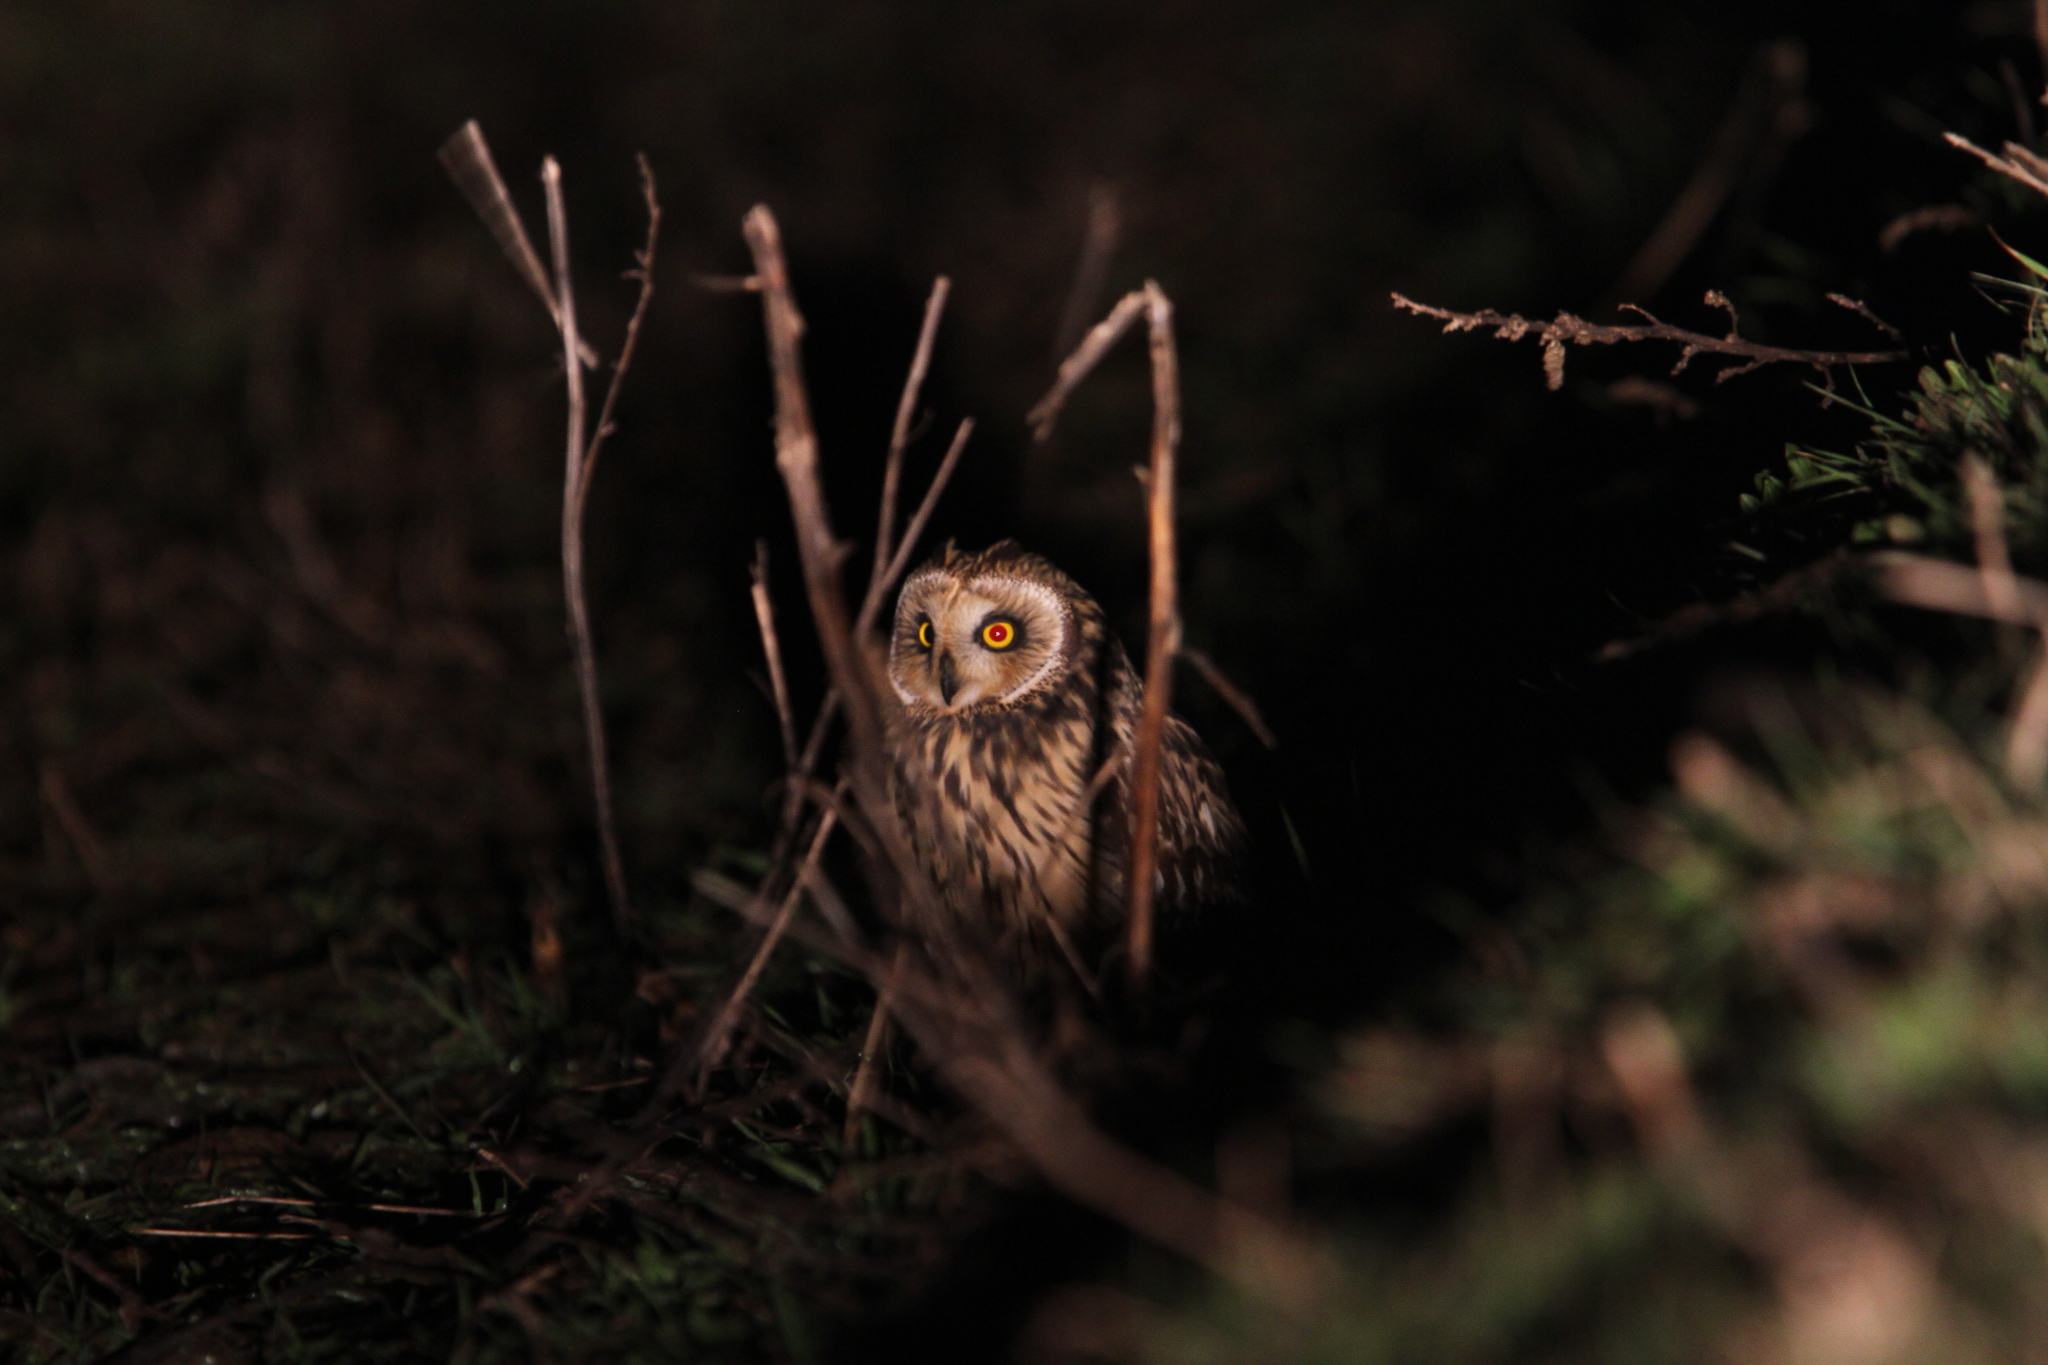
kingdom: Animalia
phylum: Chordata
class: Aves
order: Strigiformes
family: Strigidae
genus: Asio
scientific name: Asio flammeus
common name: Short-eared owl
